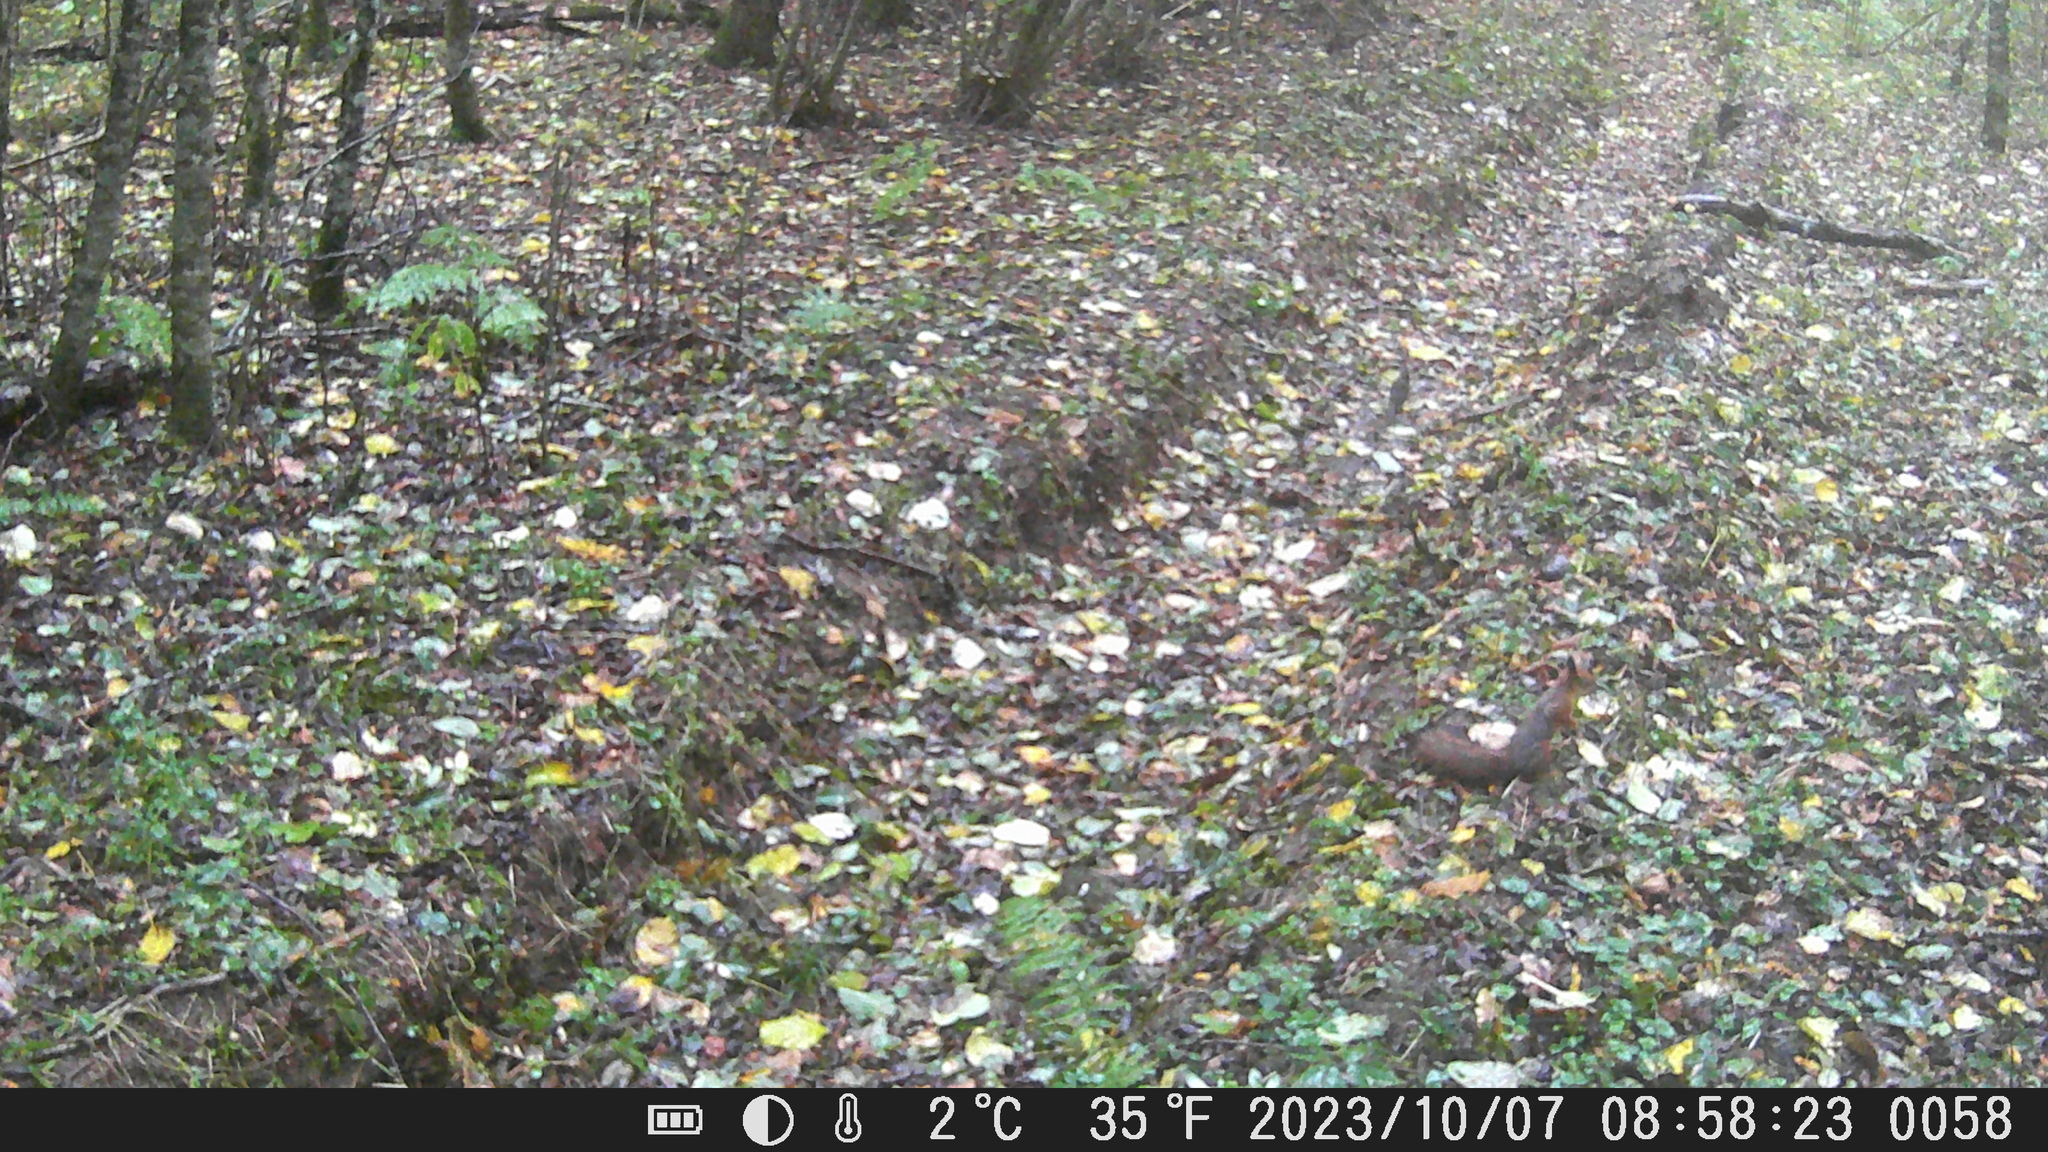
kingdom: Animalia
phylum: Chordata
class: Mammalia
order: Rodentia
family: Sciuridae
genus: Sciurus
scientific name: Sciurus vulgaris
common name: Eurasian red squirrel
